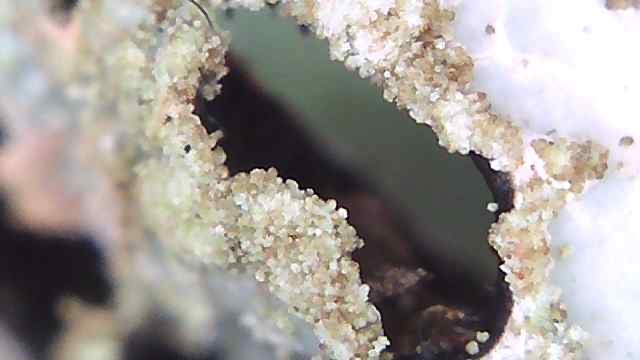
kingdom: Fungi
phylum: Ascomycota
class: Lecanoromycetes
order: Lecanorales
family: Parmeliaceae
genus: Parmelia
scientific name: Parmelia sulcata
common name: Netted shield lichen
